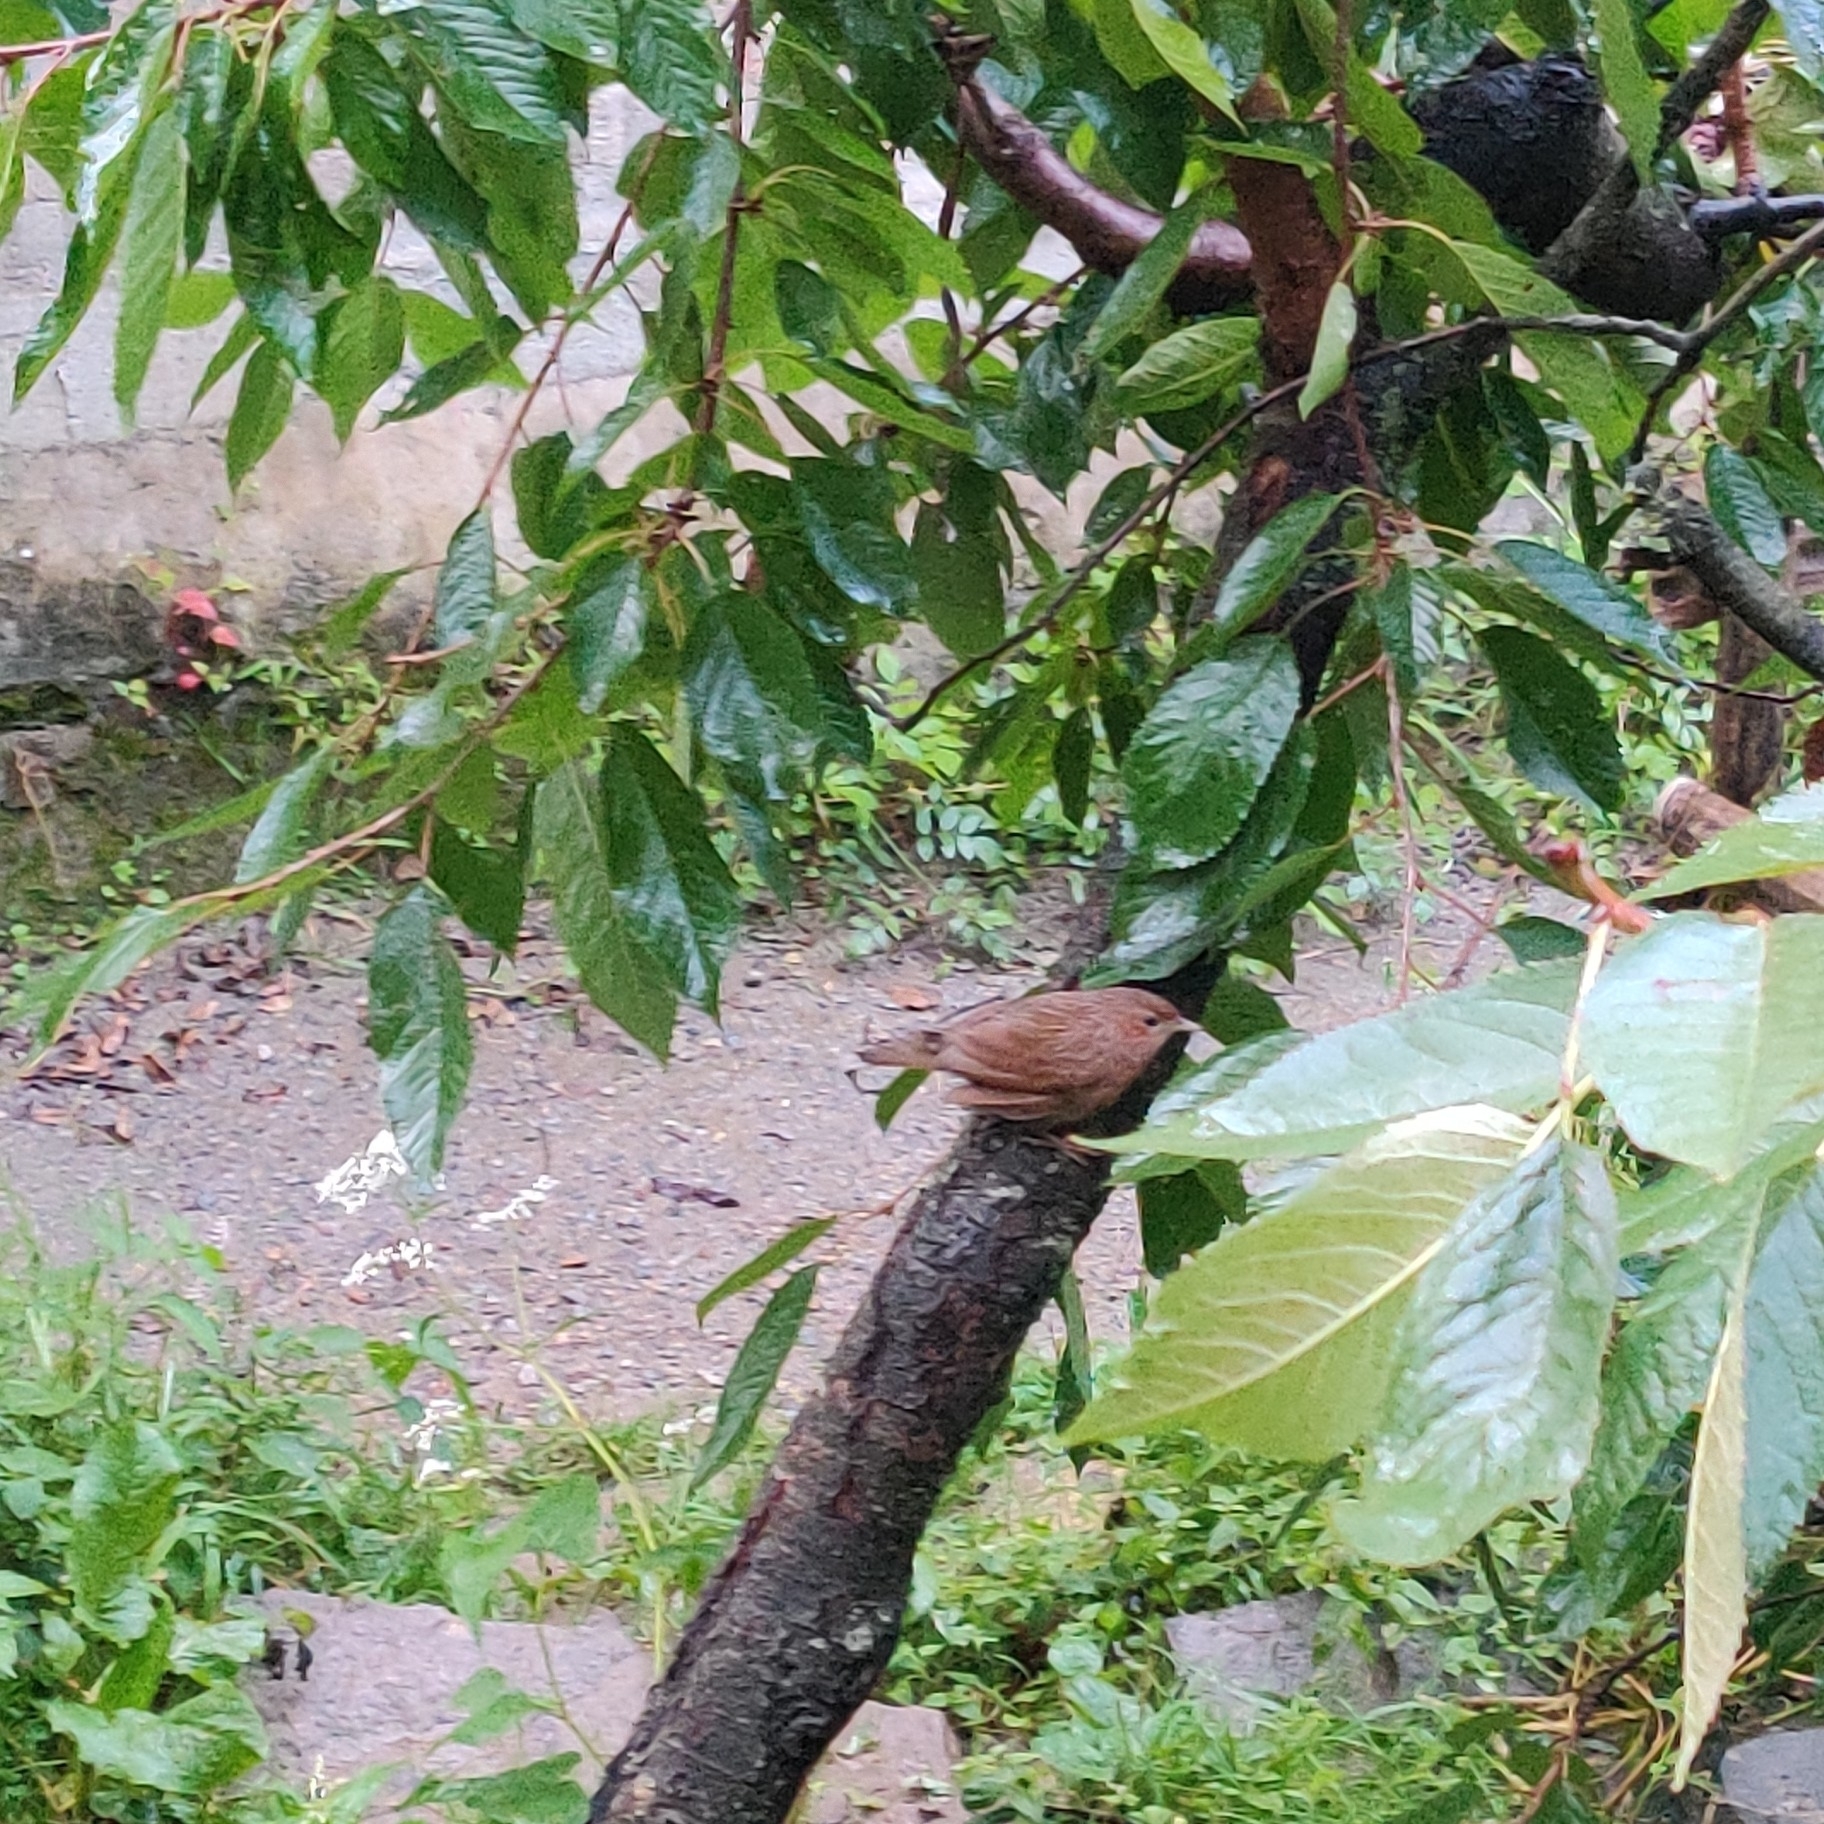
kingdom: Animalia
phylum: Chordata
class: Aves
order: Passeriformes
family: Leiothrichidae
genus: Trochalopteron
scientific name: Trochalopteron lineatum
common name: Streaked laughingthrush
